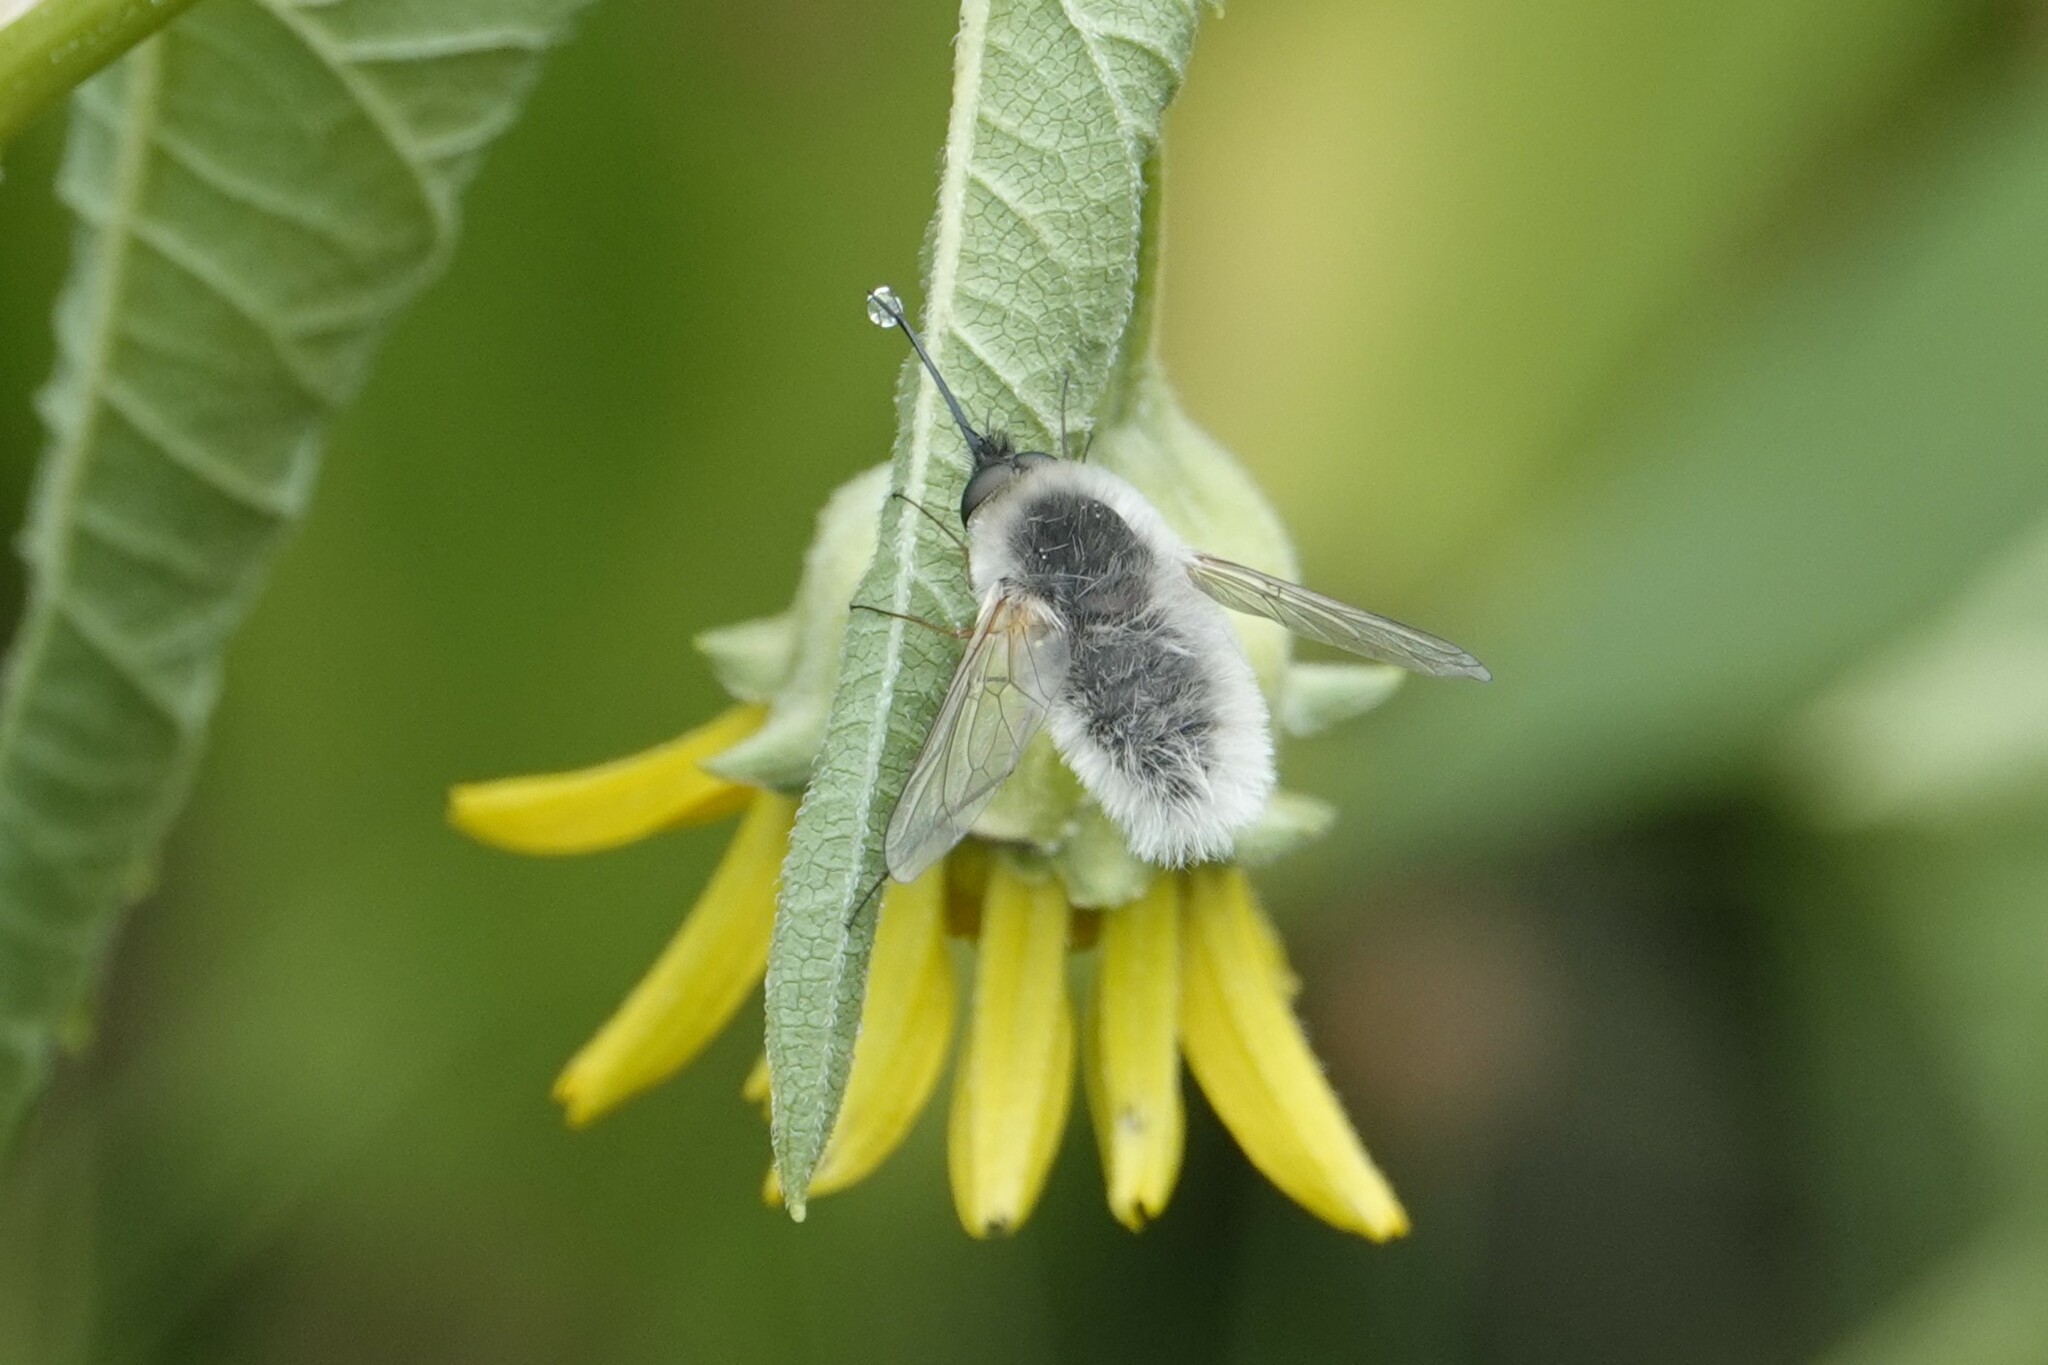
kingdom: Animalia
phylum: Arthropoda
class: Insecta
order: Diptera
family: Bombyliidae
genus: Systoechus
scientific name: Systoechus candidulus
